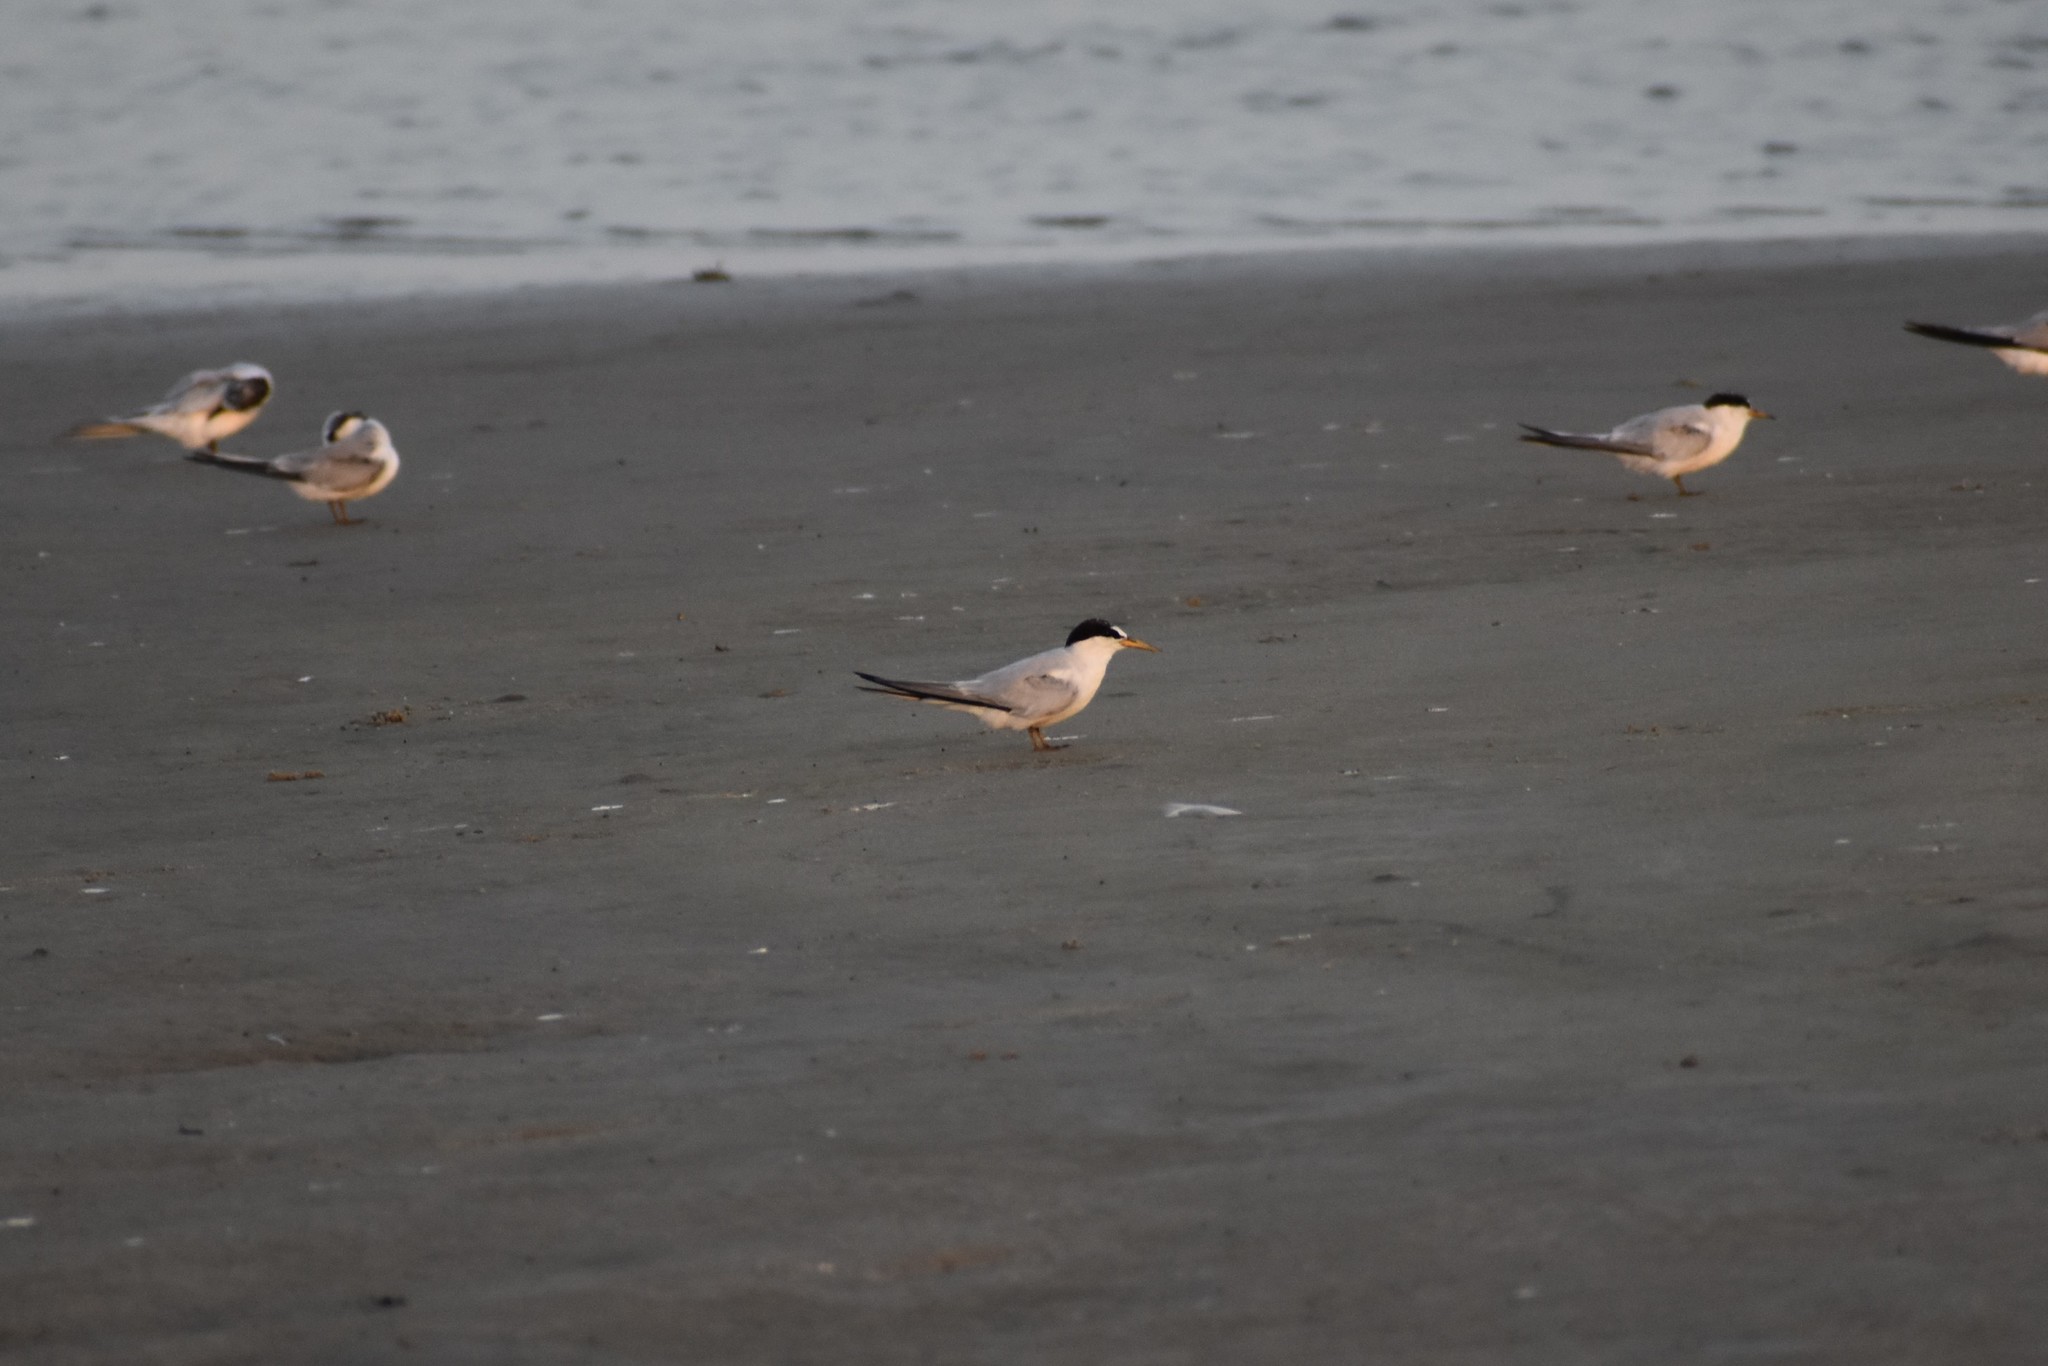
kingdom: Animalia
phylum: Chordata
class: Aves
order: Charadriiformes
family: Laridae
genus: Sternula
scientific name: Sternula antillarum
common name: Least tern
